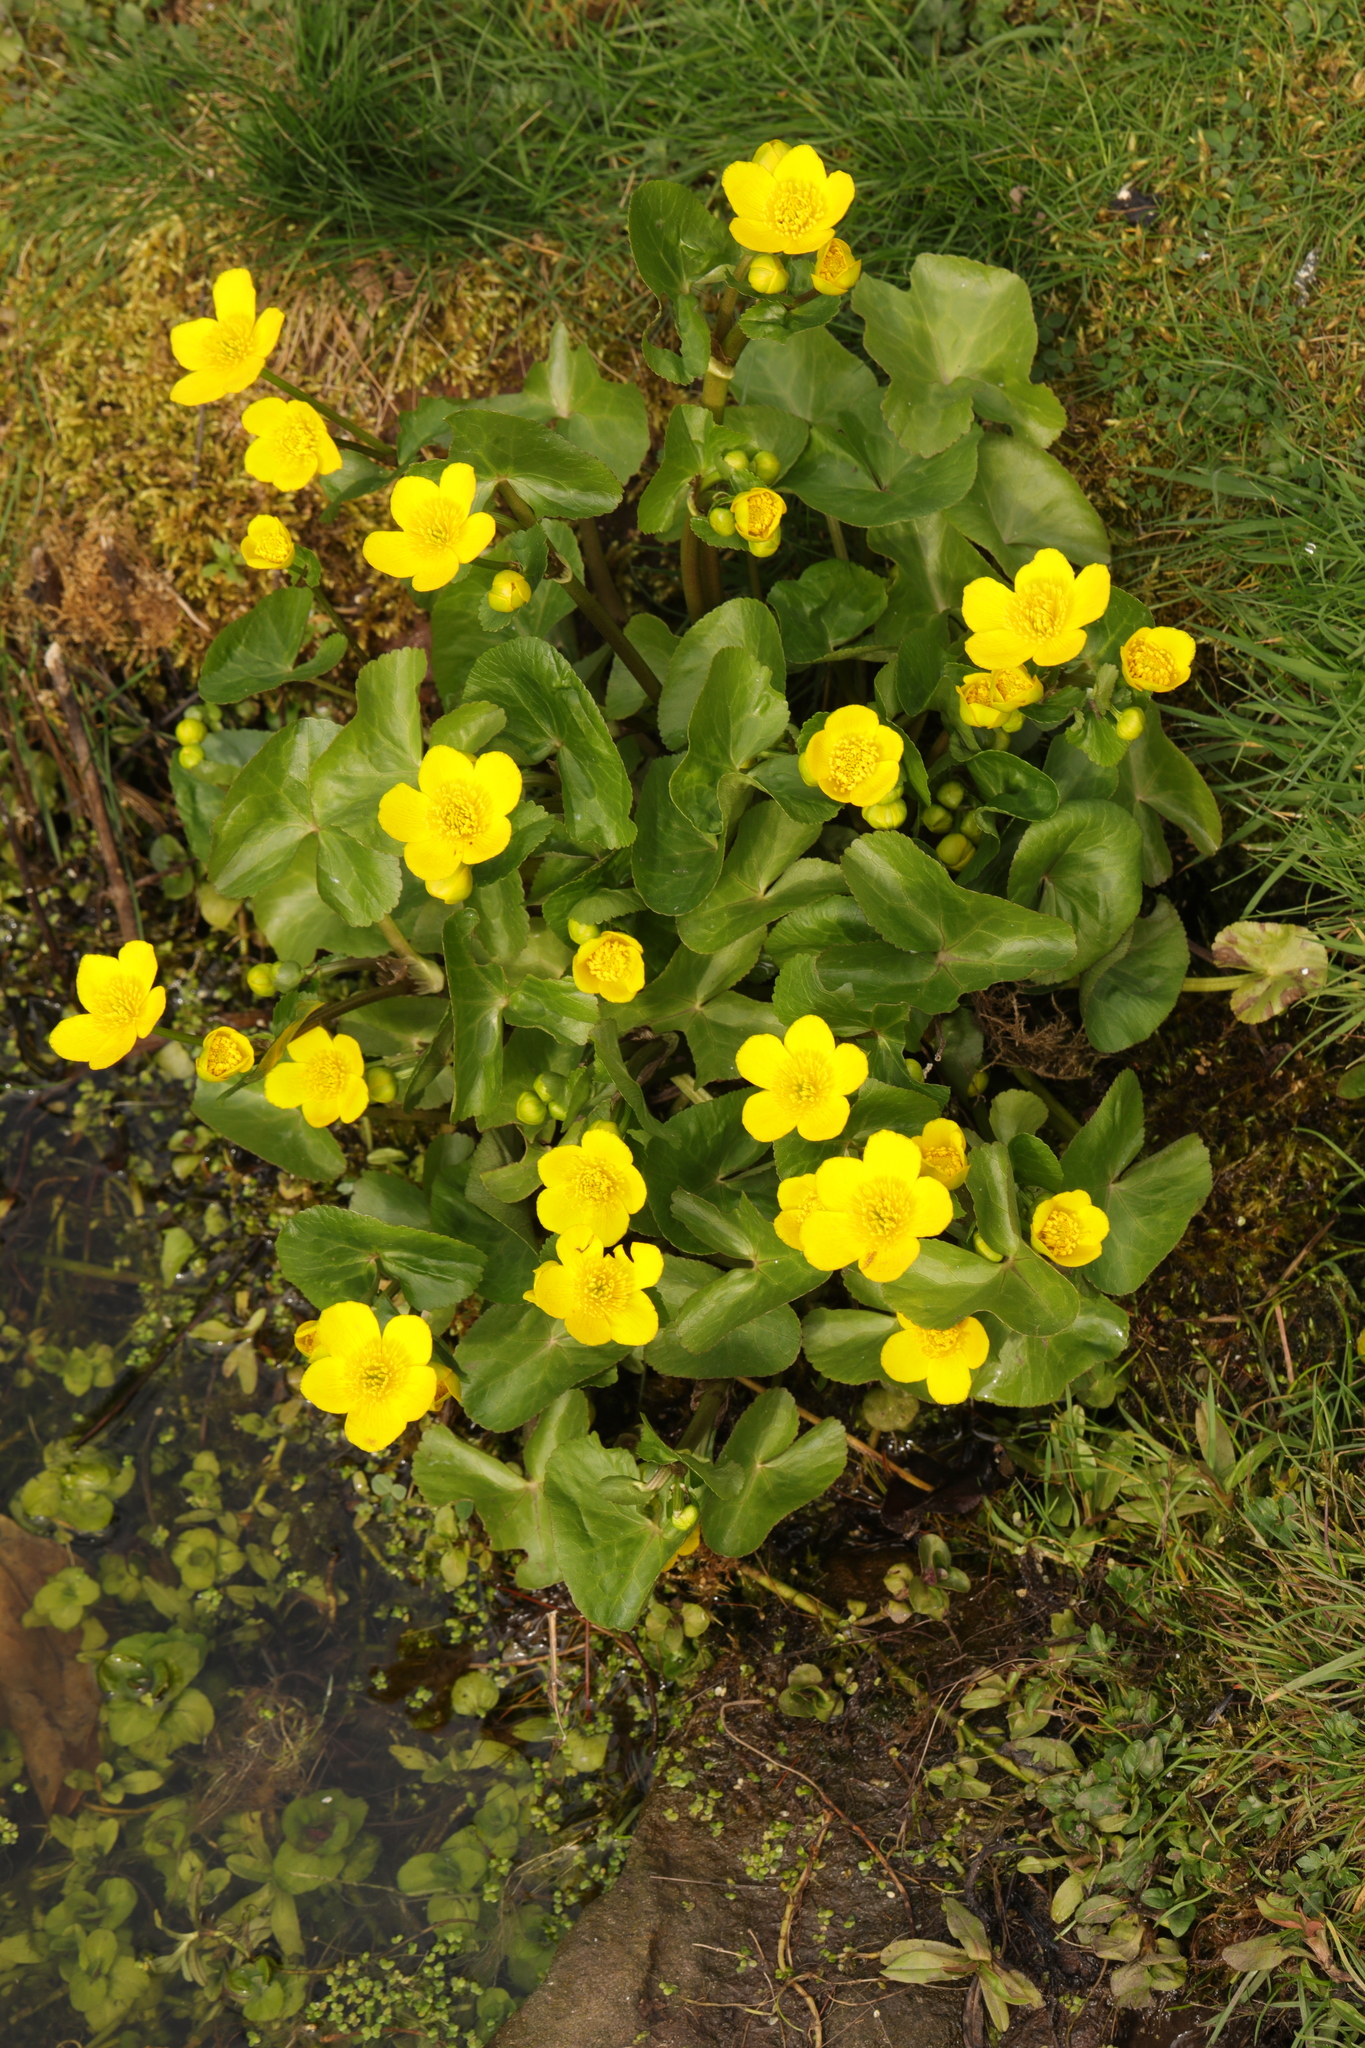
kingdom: Plantae
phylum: Tracheophyta
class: Magnoliopsida
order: Ranunculales
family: Ranunculaceae
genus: Caltha
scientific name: Caltha palustris
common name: Marsh marigold
